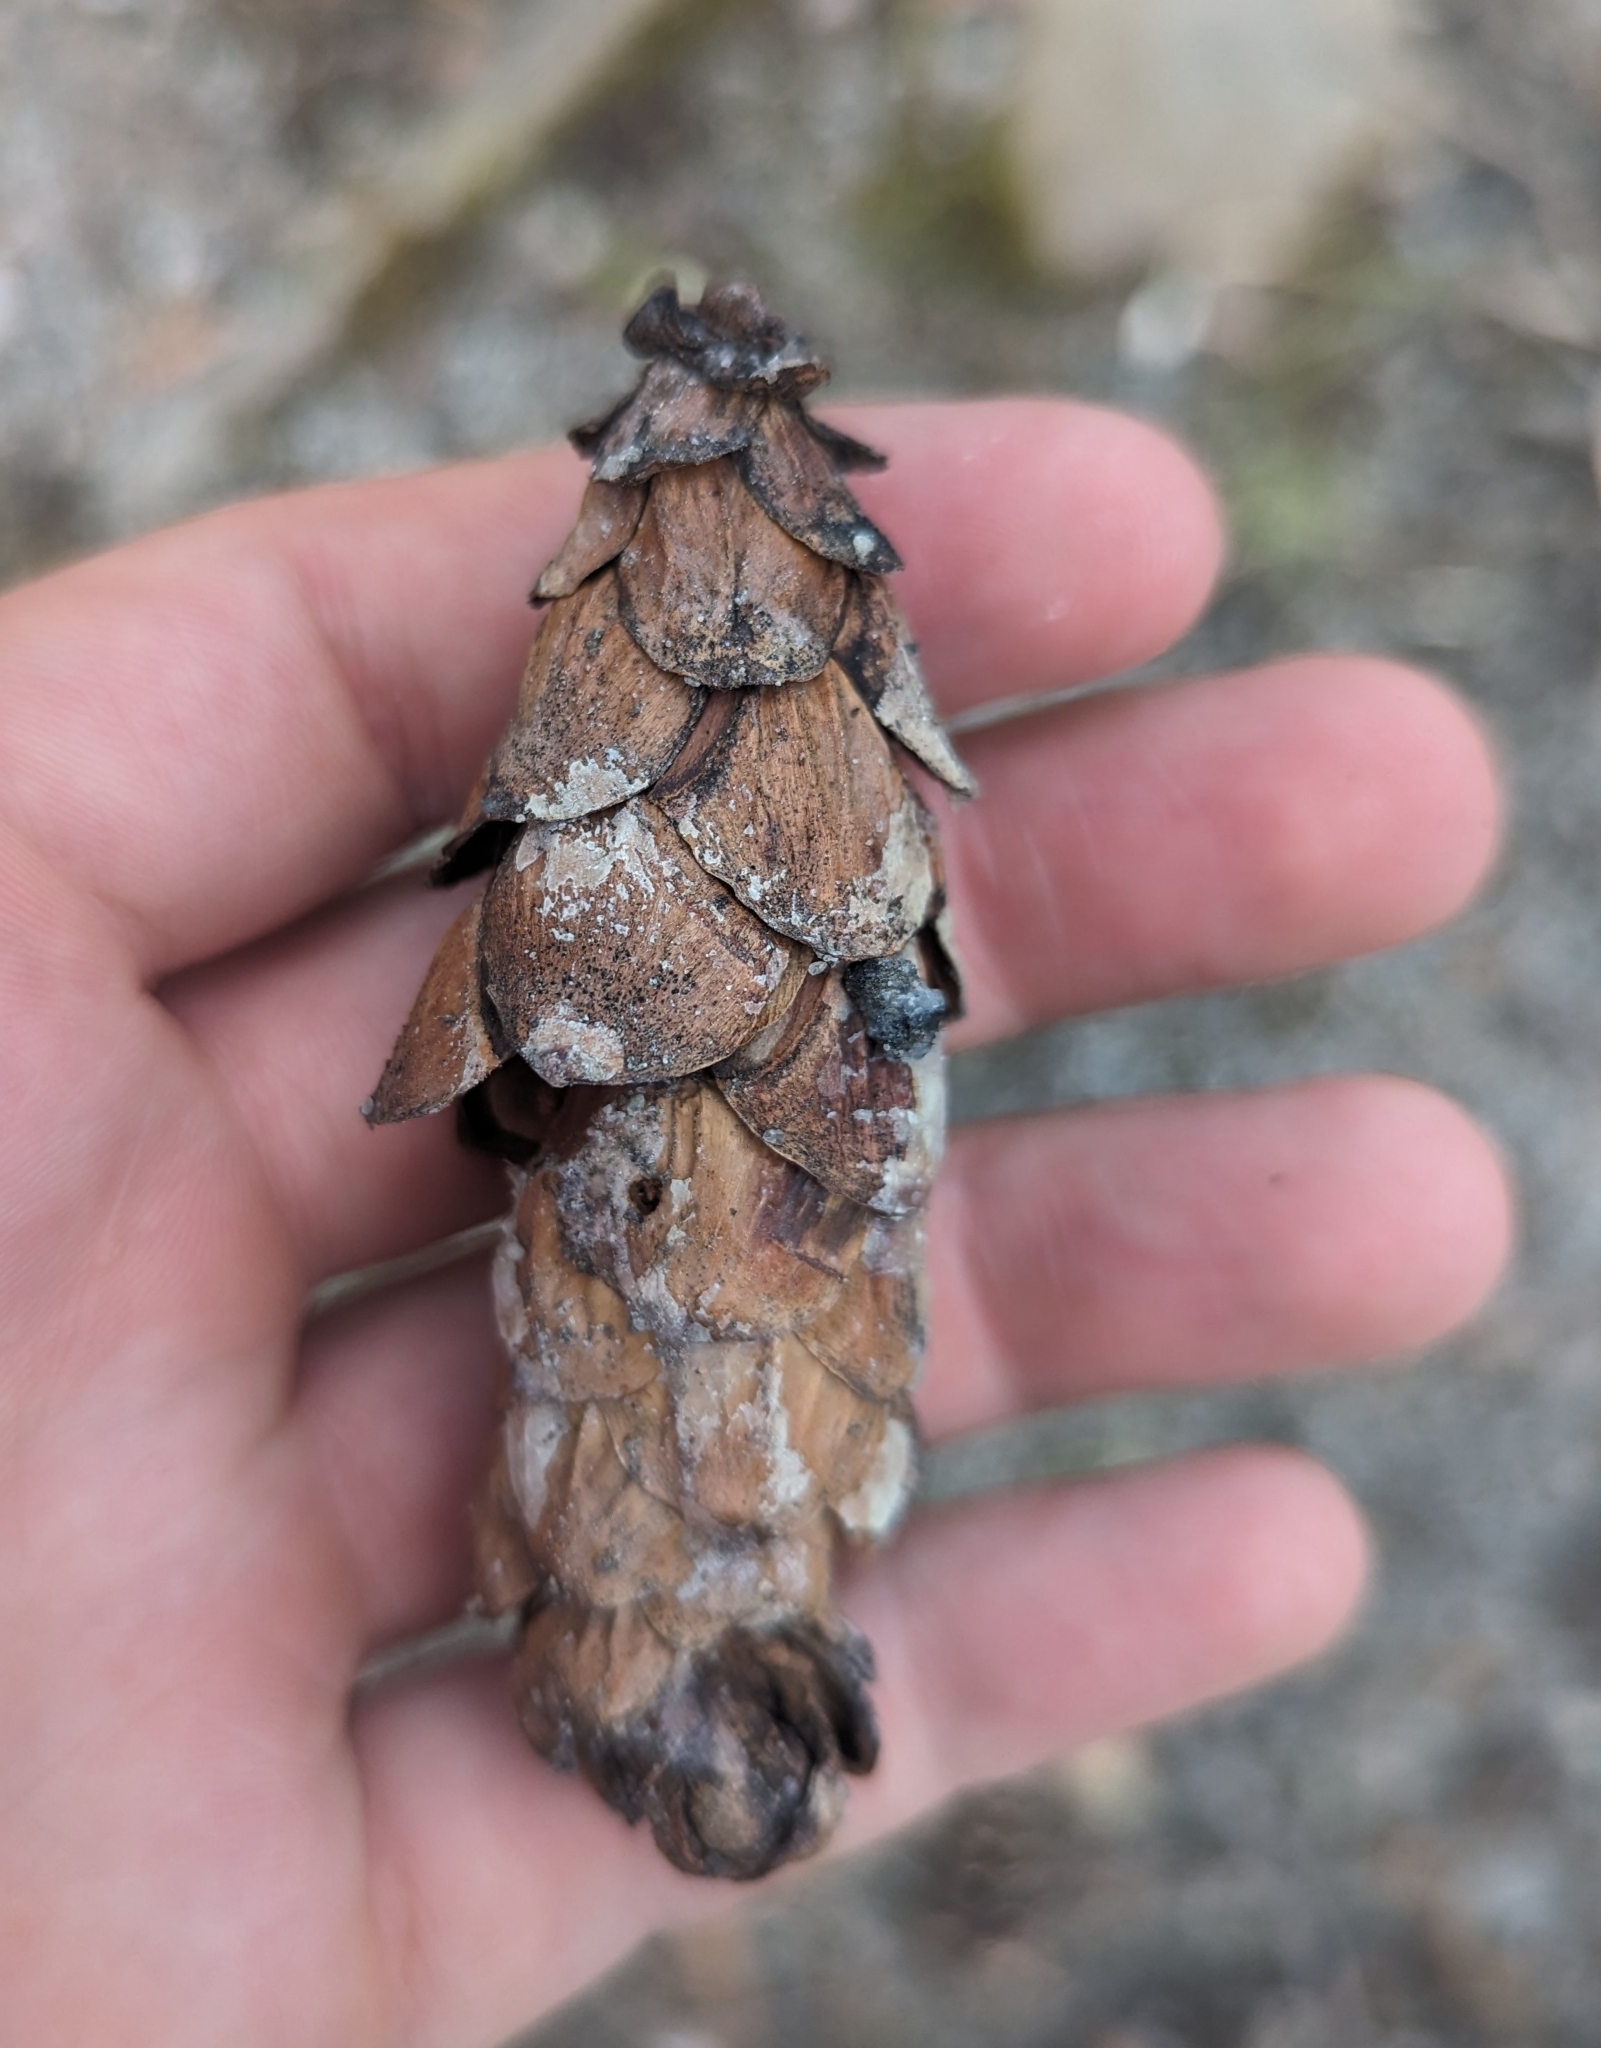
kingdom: Plantae
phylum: Tracheophyta
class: Pinopsida
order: Pinales
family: Pinaceae
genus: Pinus
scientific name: Pinus strobus
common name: Weymouth pine
